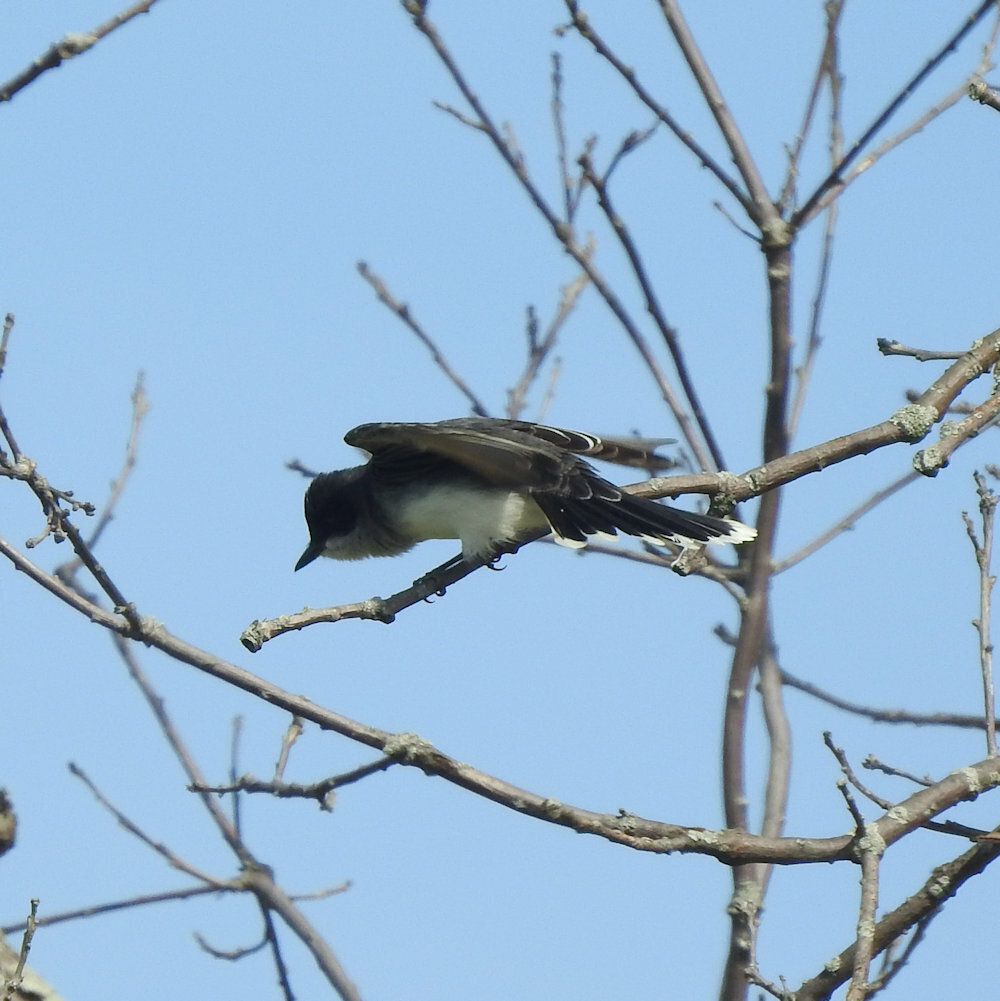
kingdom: Animalia
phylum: Chordata
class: Aves
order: Passeriformes
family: Tyrannidae
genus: Tyrannus
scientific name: Tyrannus tyrannus
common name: Eastern kingbird
